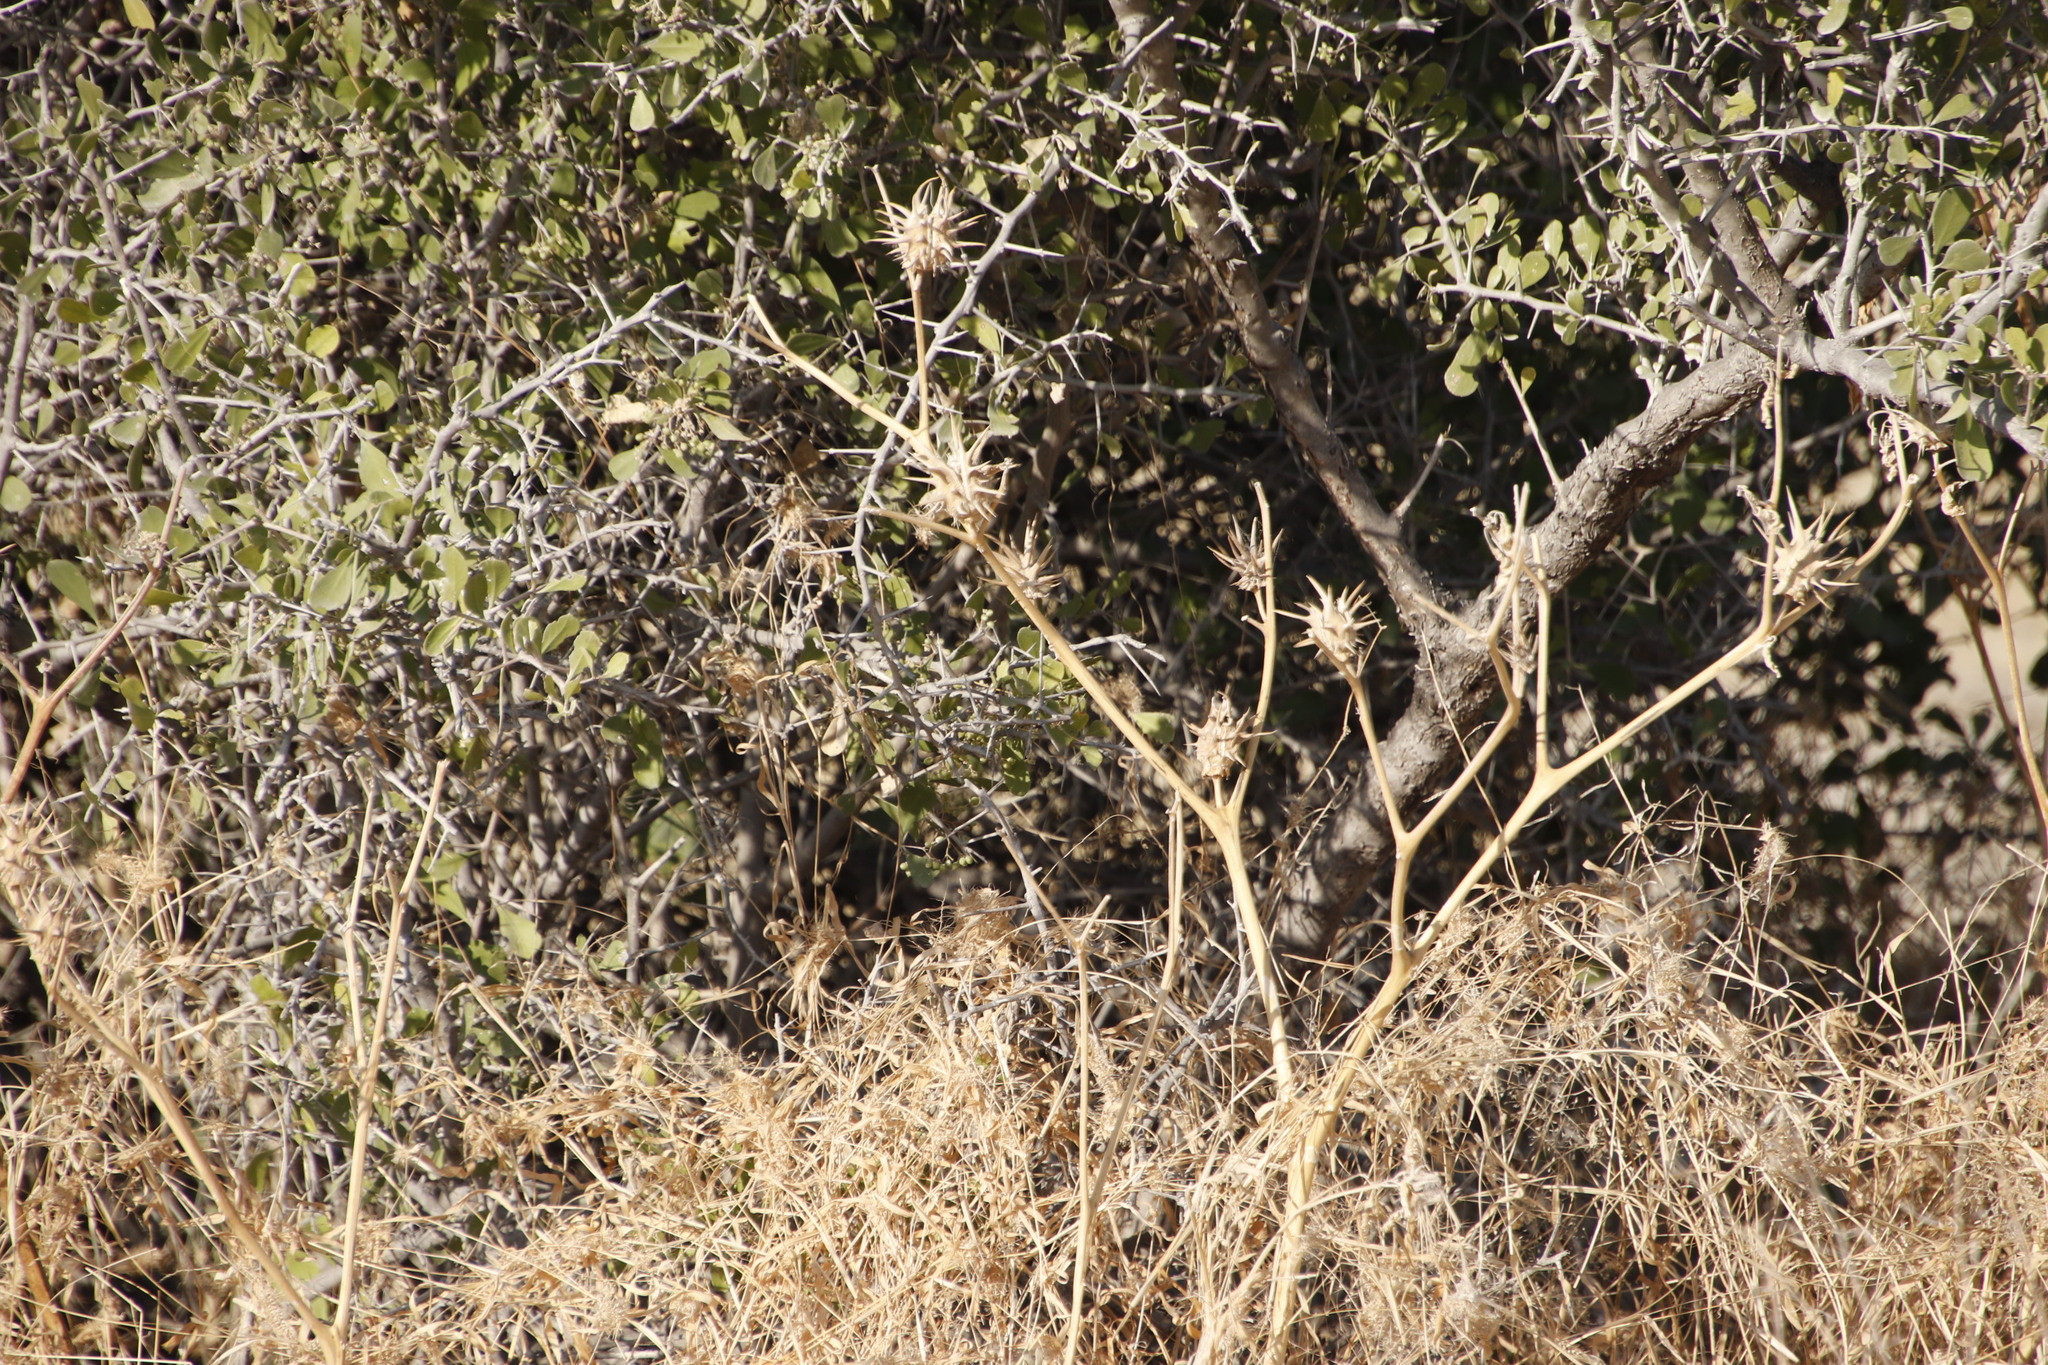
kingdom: Plantae
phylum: Tracheophyta
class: Magnoliopsida
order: Solanales
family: Solanaceae
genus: Datura
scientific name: Datura ferox
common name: Angel's-trumpets
